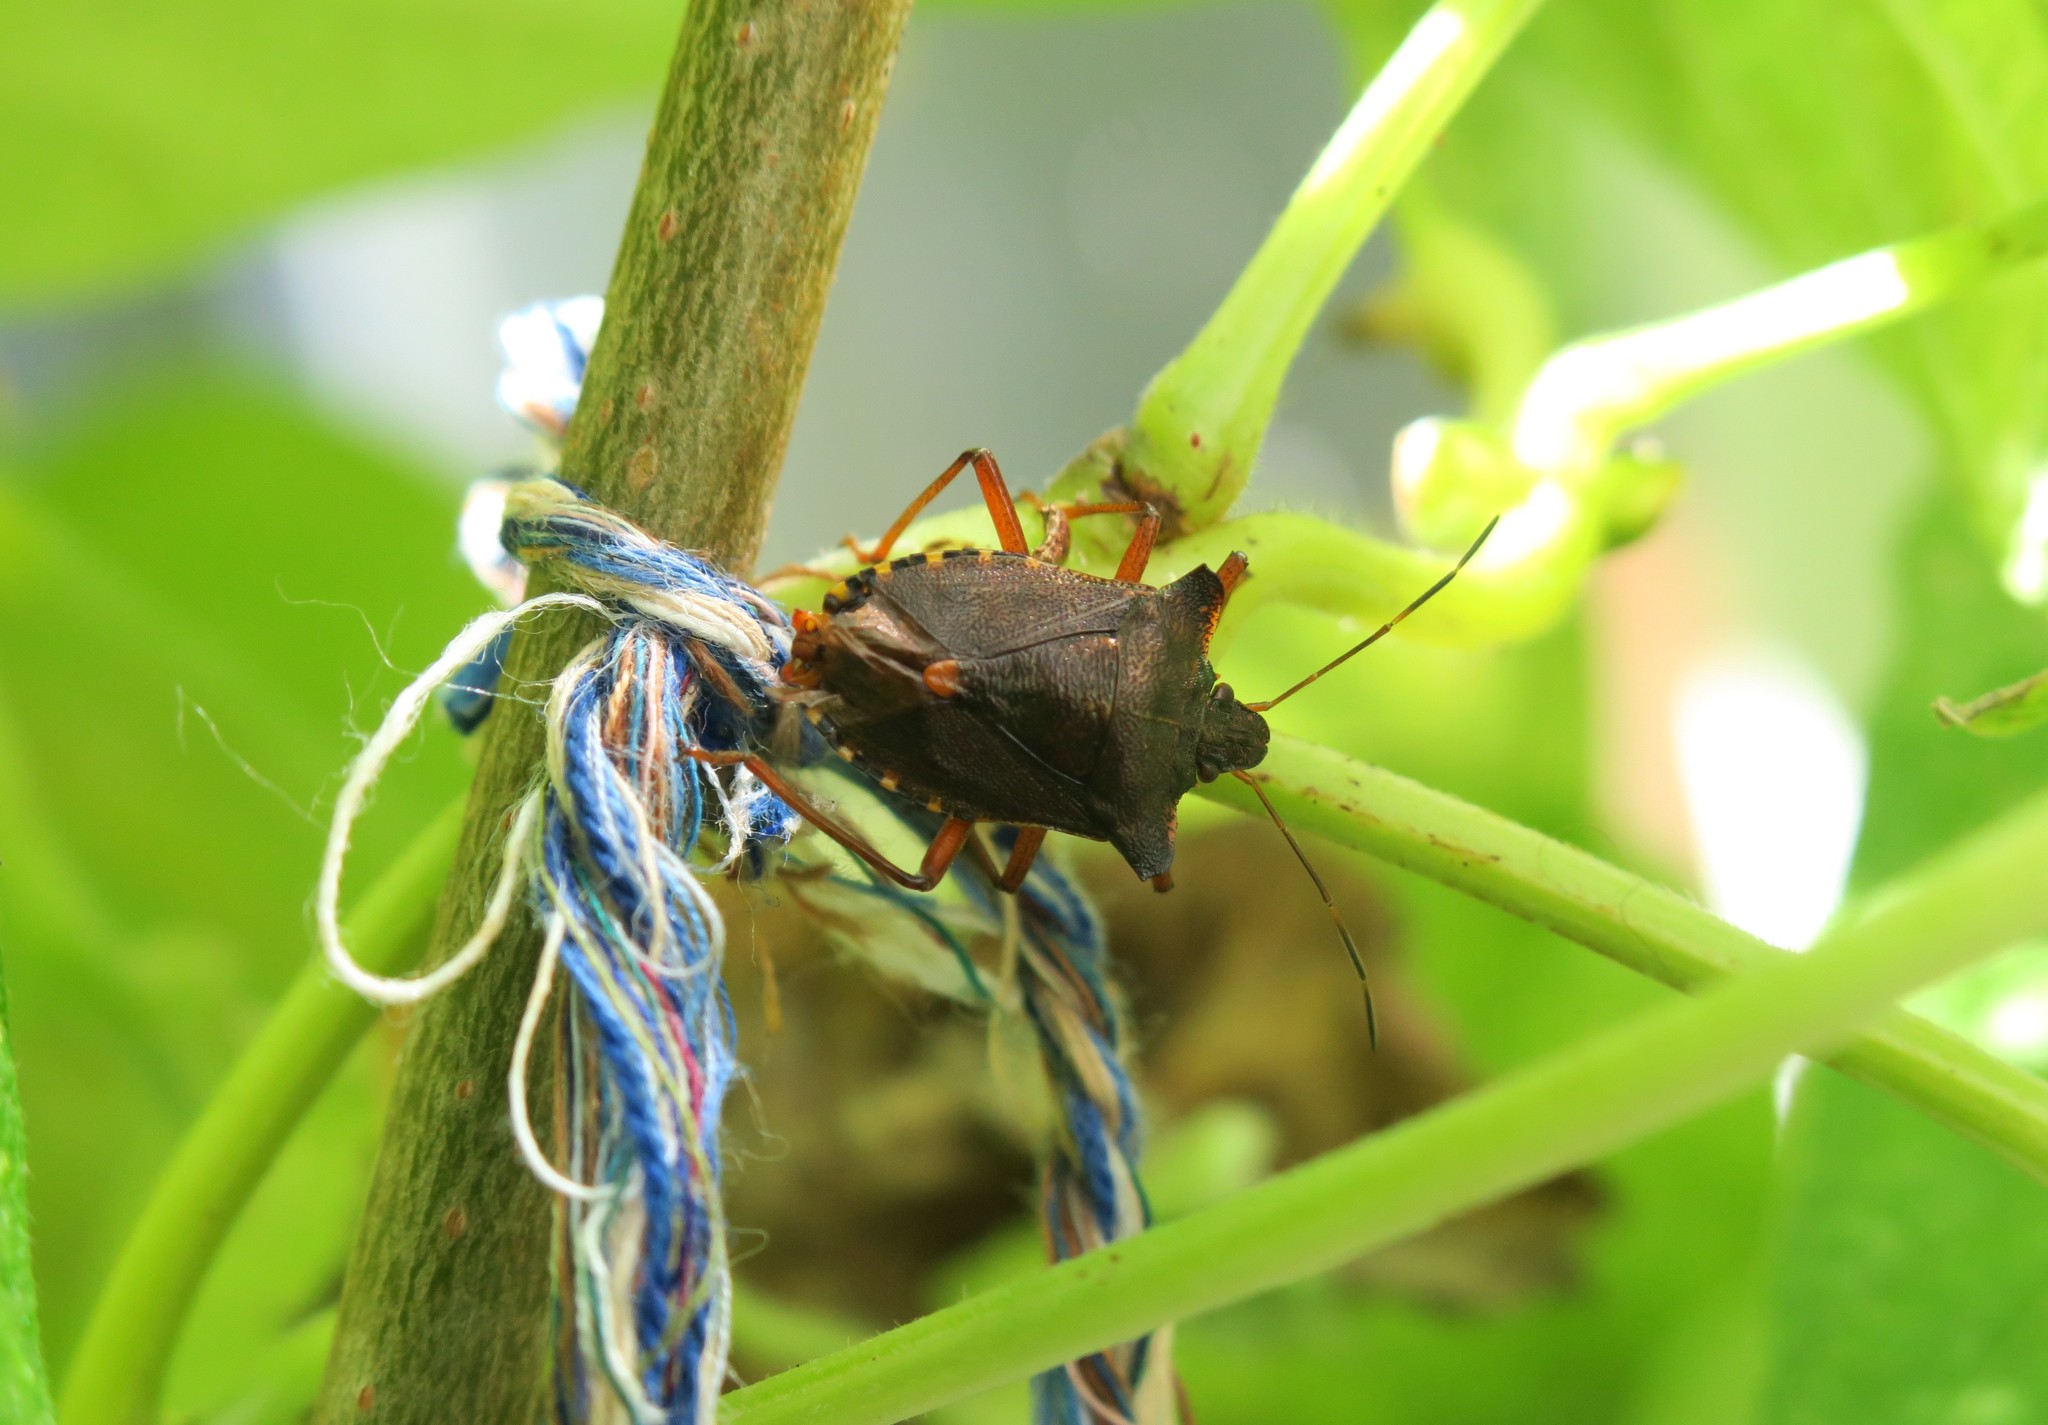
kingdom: Animalia
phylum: Arthropoda
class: Insecta
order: Hemiptera
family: Pentatomidae
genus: Pentatoma
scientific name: Pentatoma rufipes
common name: Forest bug
